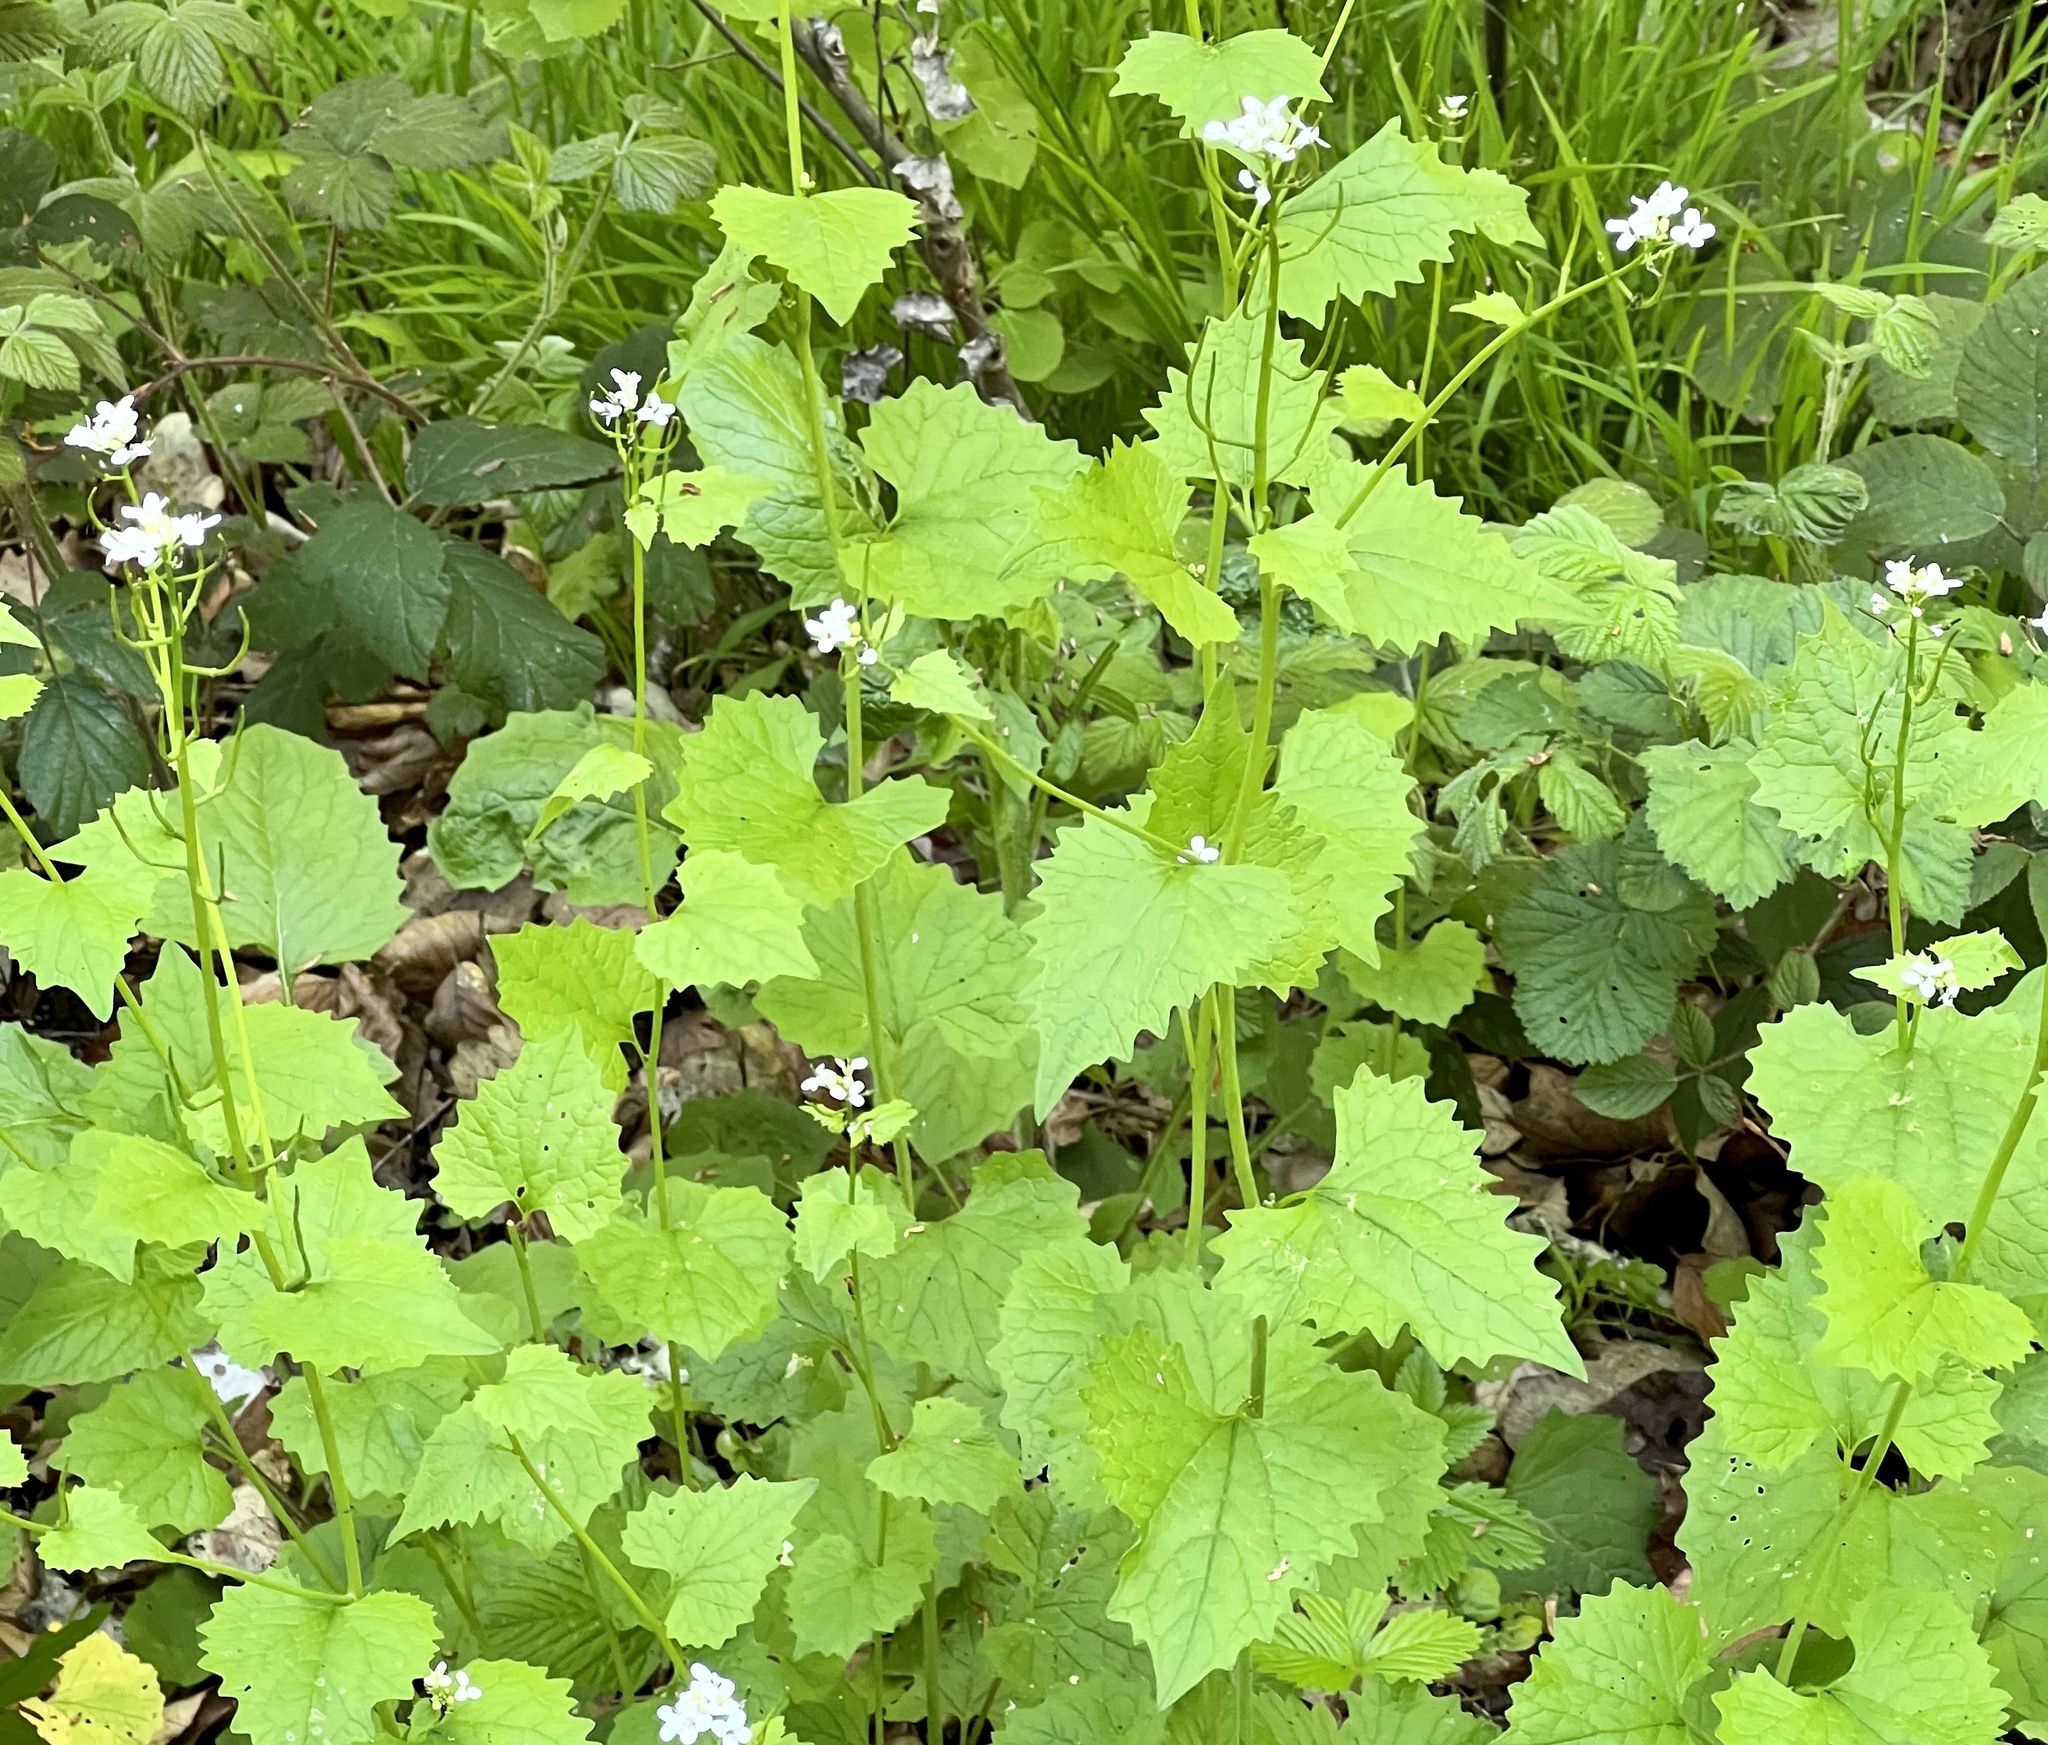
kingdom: Plantae
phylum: Tracheophyta
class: Magnoliopsida
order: Brassicales
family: Brassicaceae
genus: Alliaria
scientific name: Alliaria petiolata
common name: Garlic mustard
